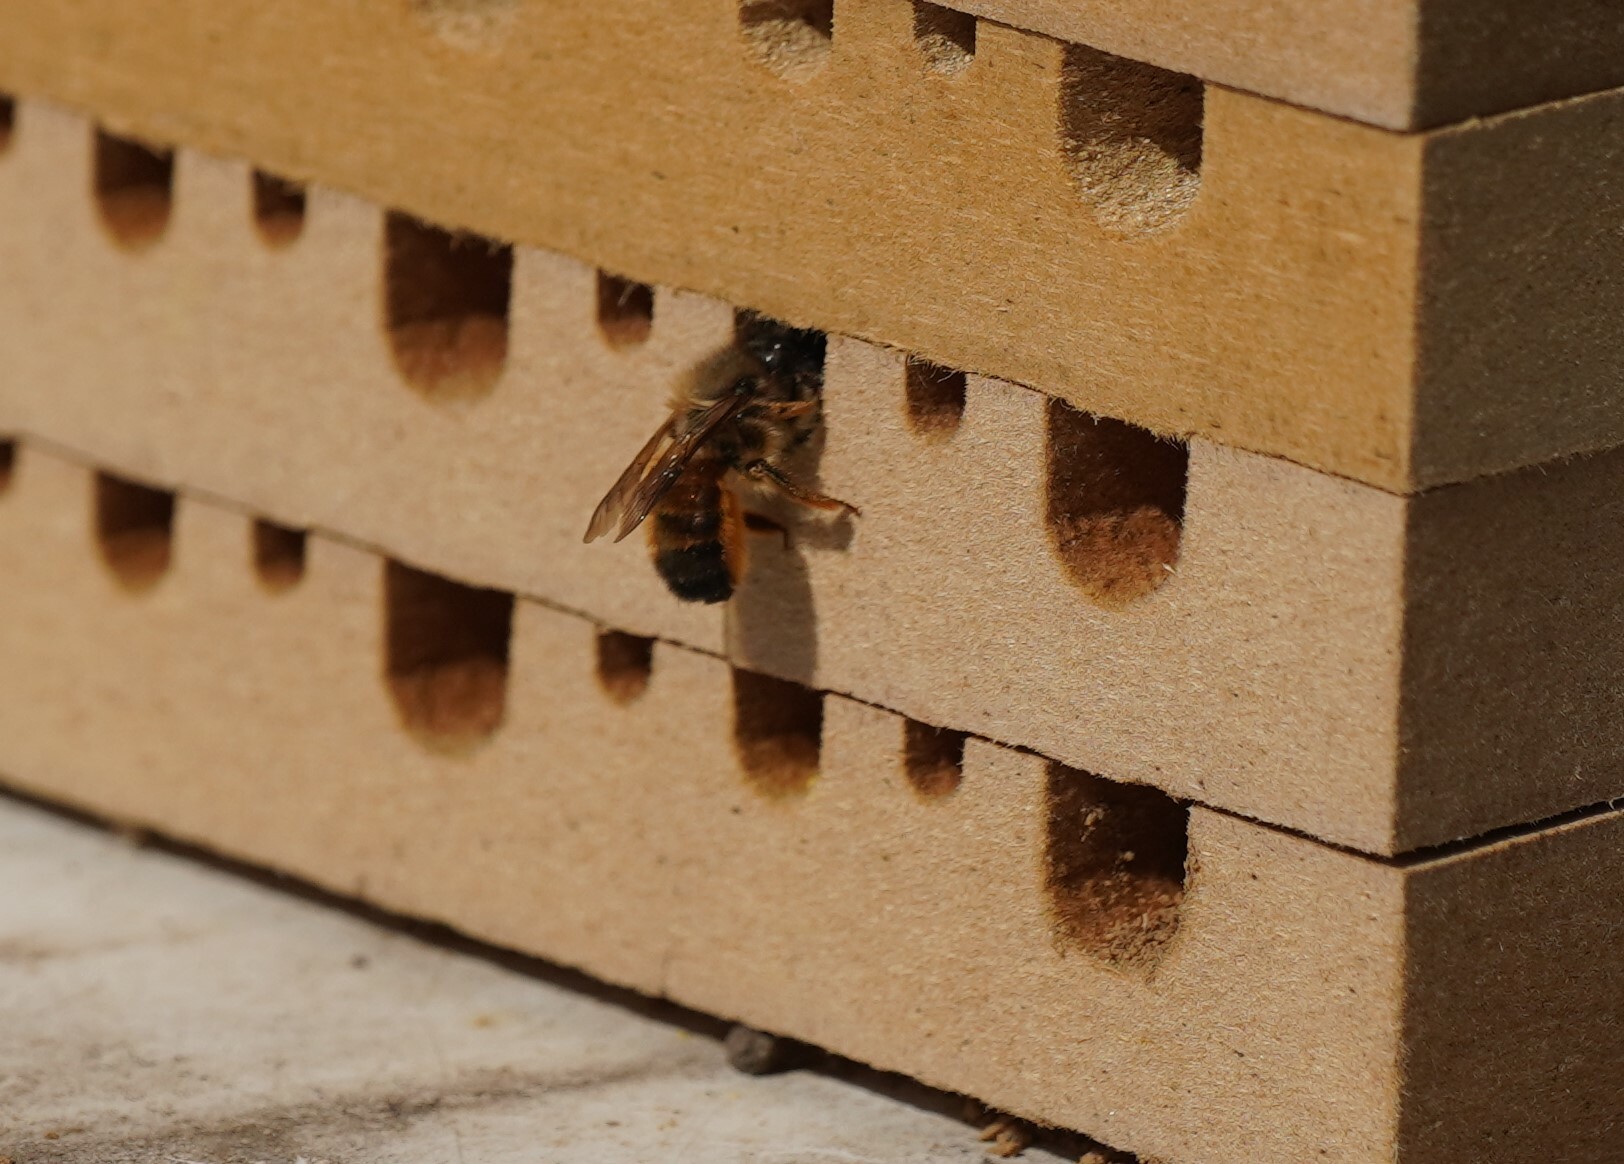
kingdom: Animalia
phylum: Arthropoda
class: Insecta
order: Hymenoptera
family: Megachilidae
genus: Osmia
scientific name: Osmia bicornis
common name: Red mason bee
